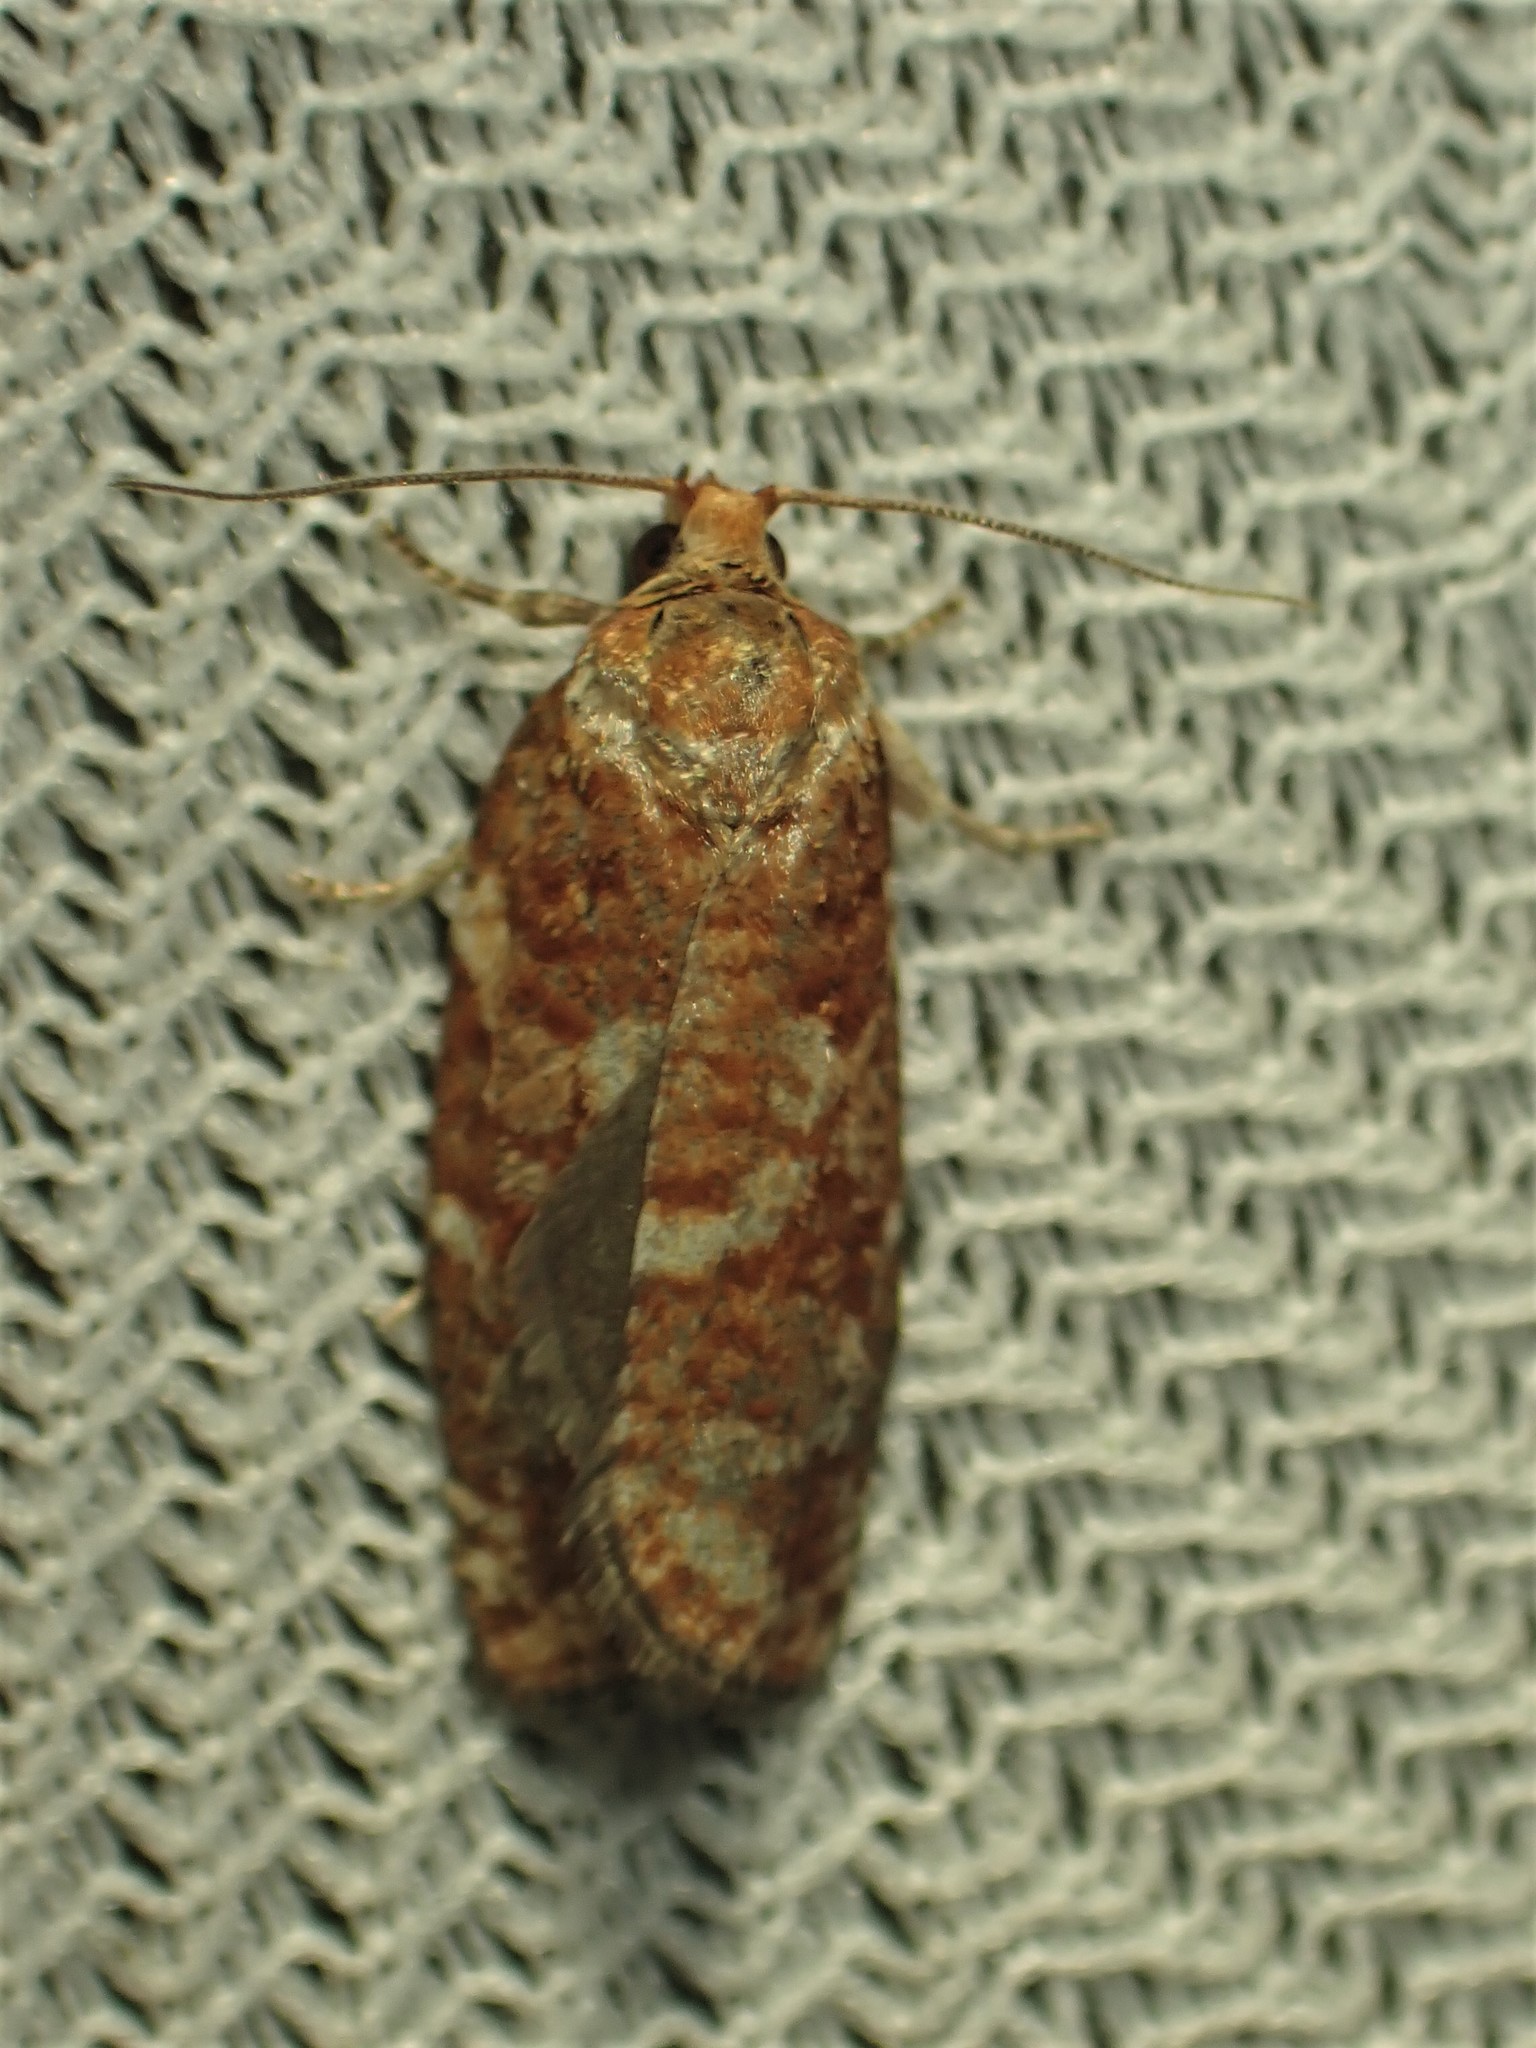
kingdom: Animalia
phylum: Arthropoda
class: Insecta
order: Lepidoptera
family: Tortricidae
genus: Choristoneura
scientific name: Choristoneura pinus
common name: Jack pine budworm
